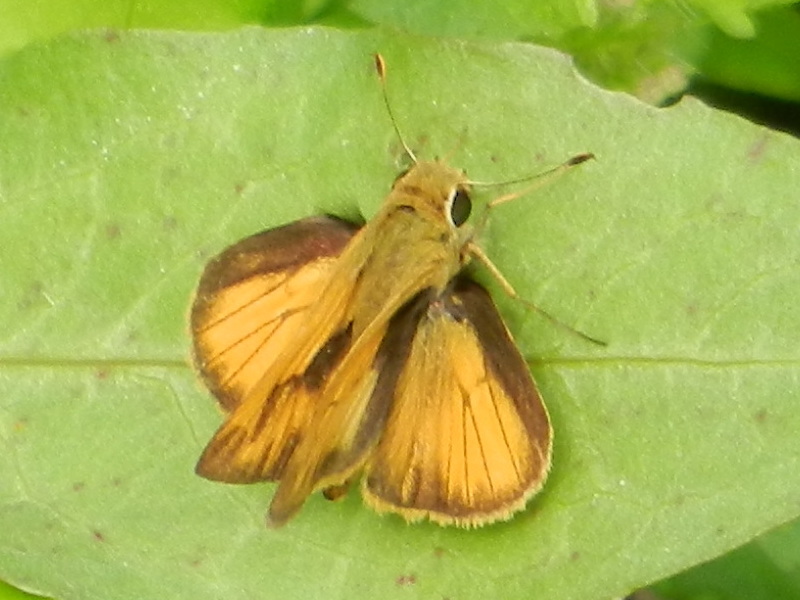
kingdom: Animalia
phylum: Arthropoda
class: Insecta
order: Lepidoptera
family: Hesperiidae
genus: Polites
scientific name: Polites vibex
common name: Whirlabout
